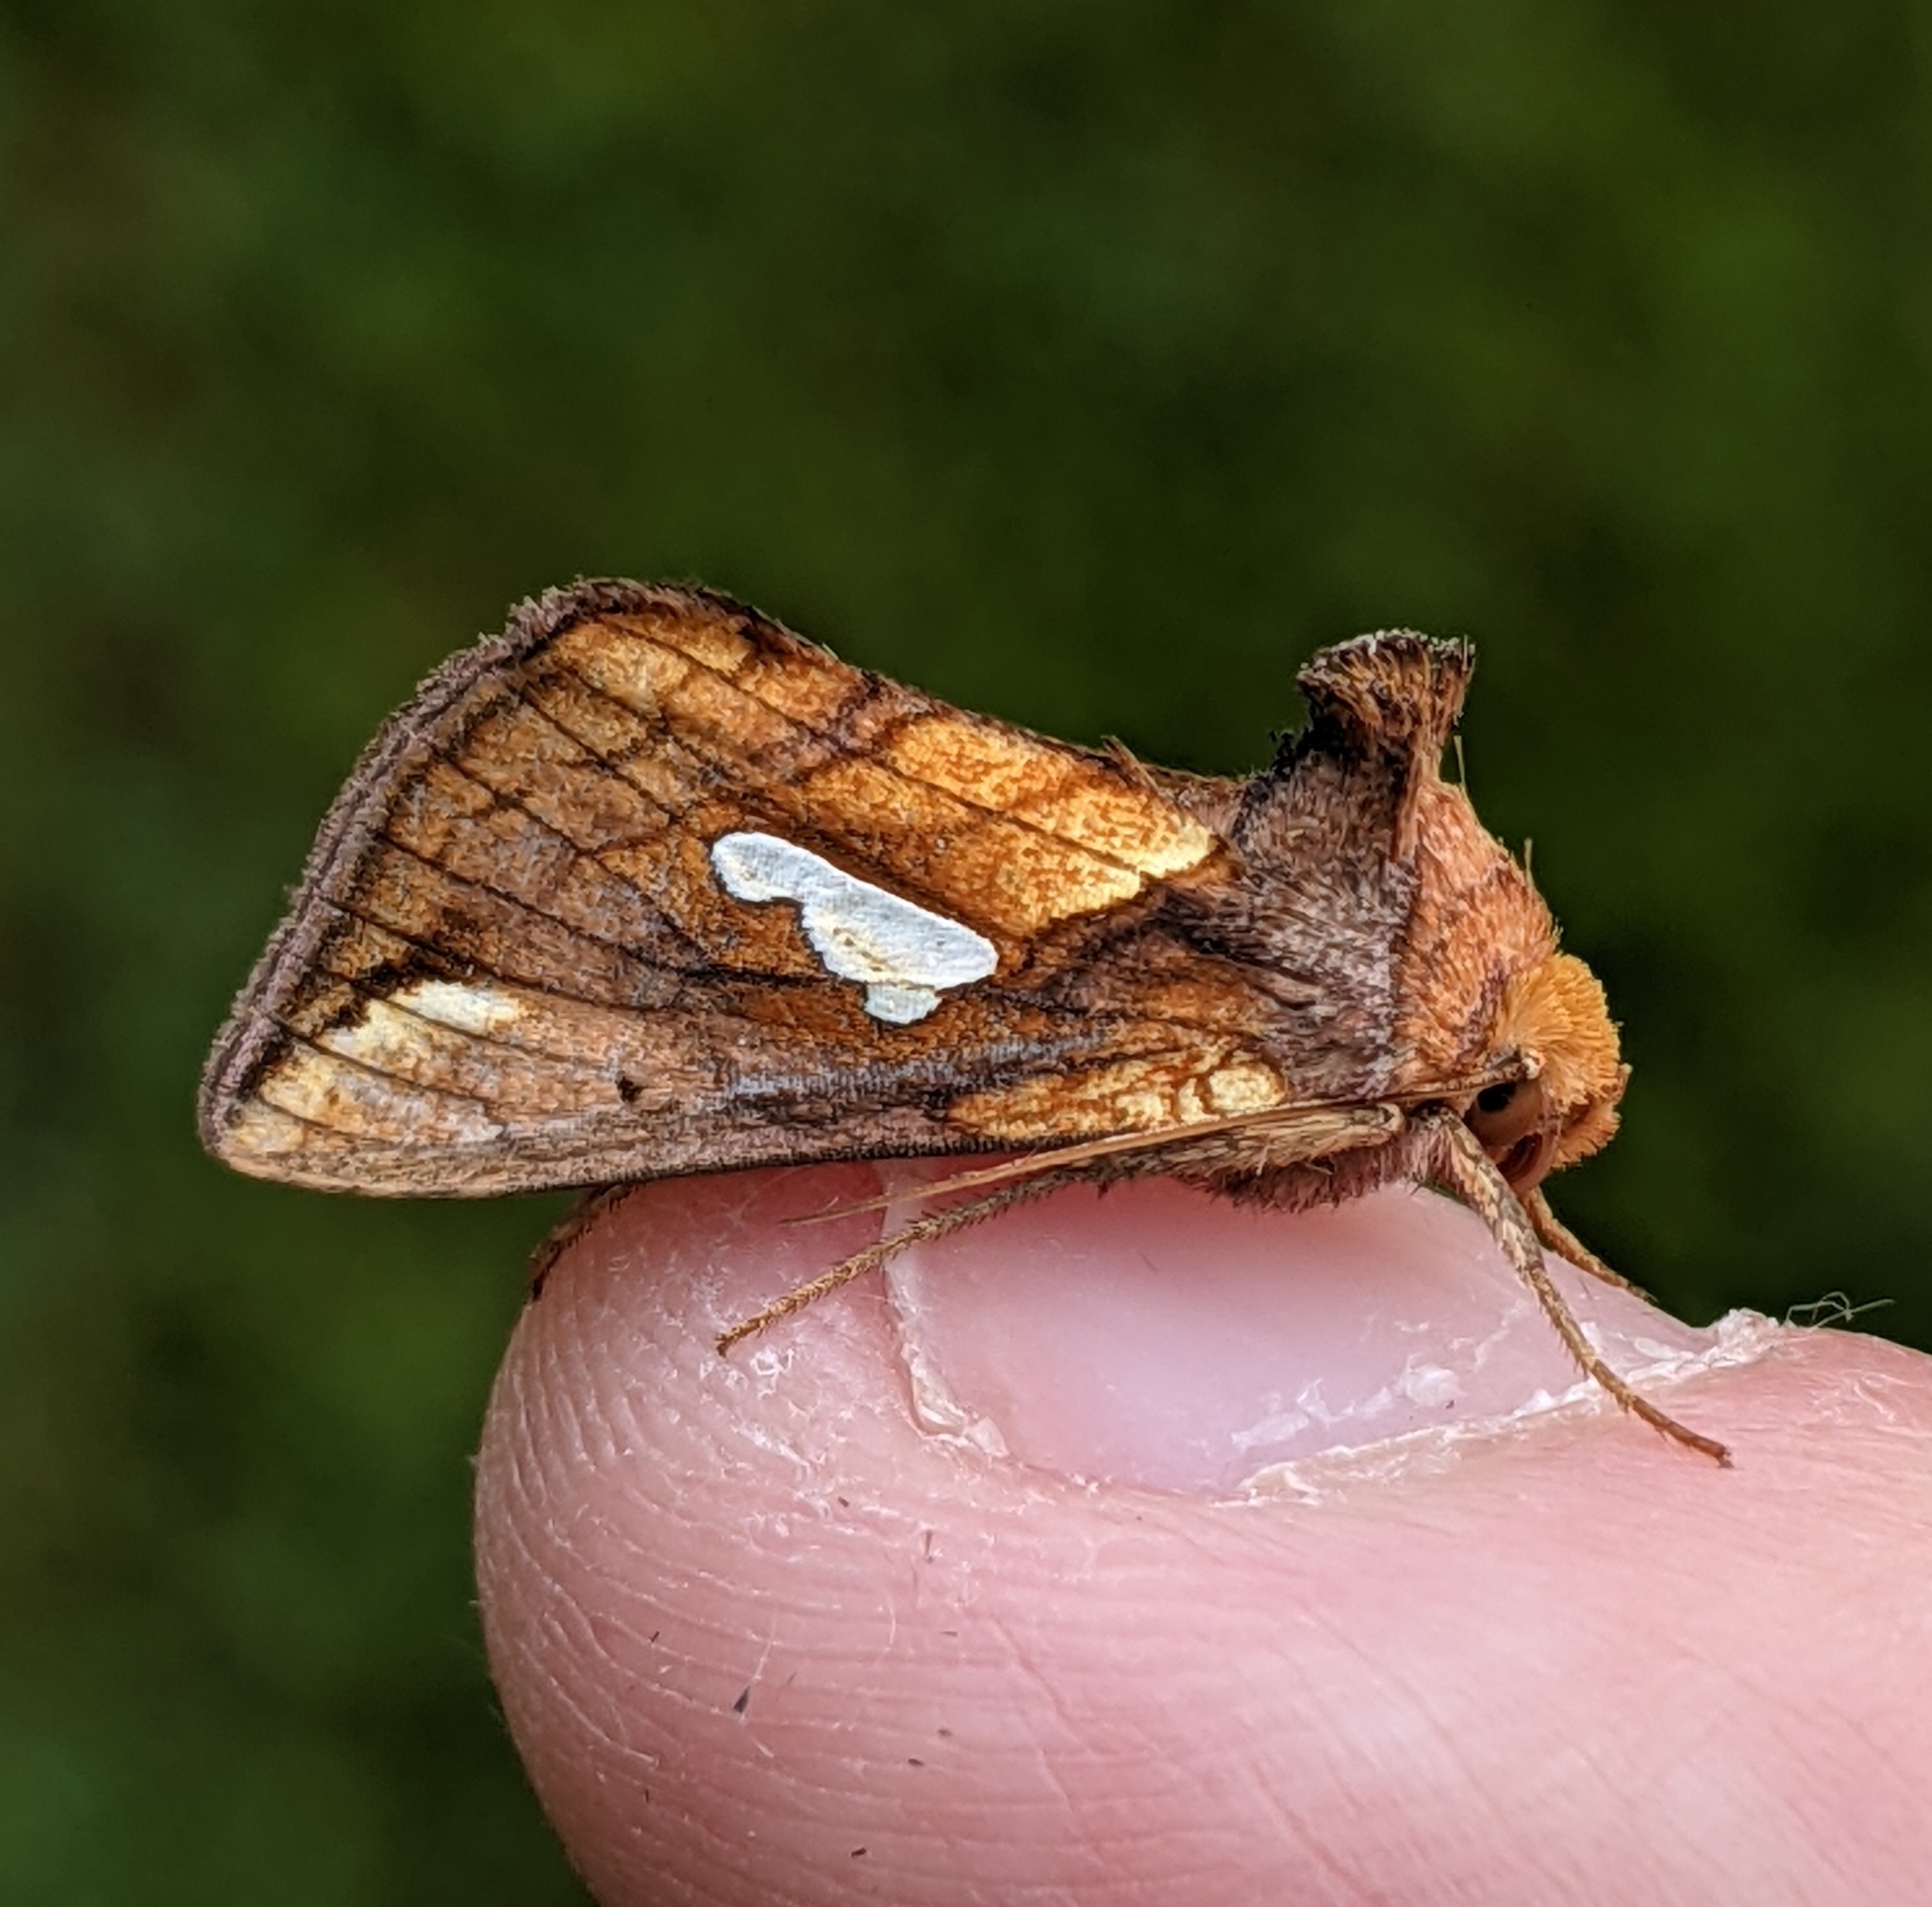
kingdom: Animalia
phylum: Arthropoda
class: Insecta
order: Lepidoptera
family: Noctuidae
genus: Plusia
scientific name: Plusia nichollae
